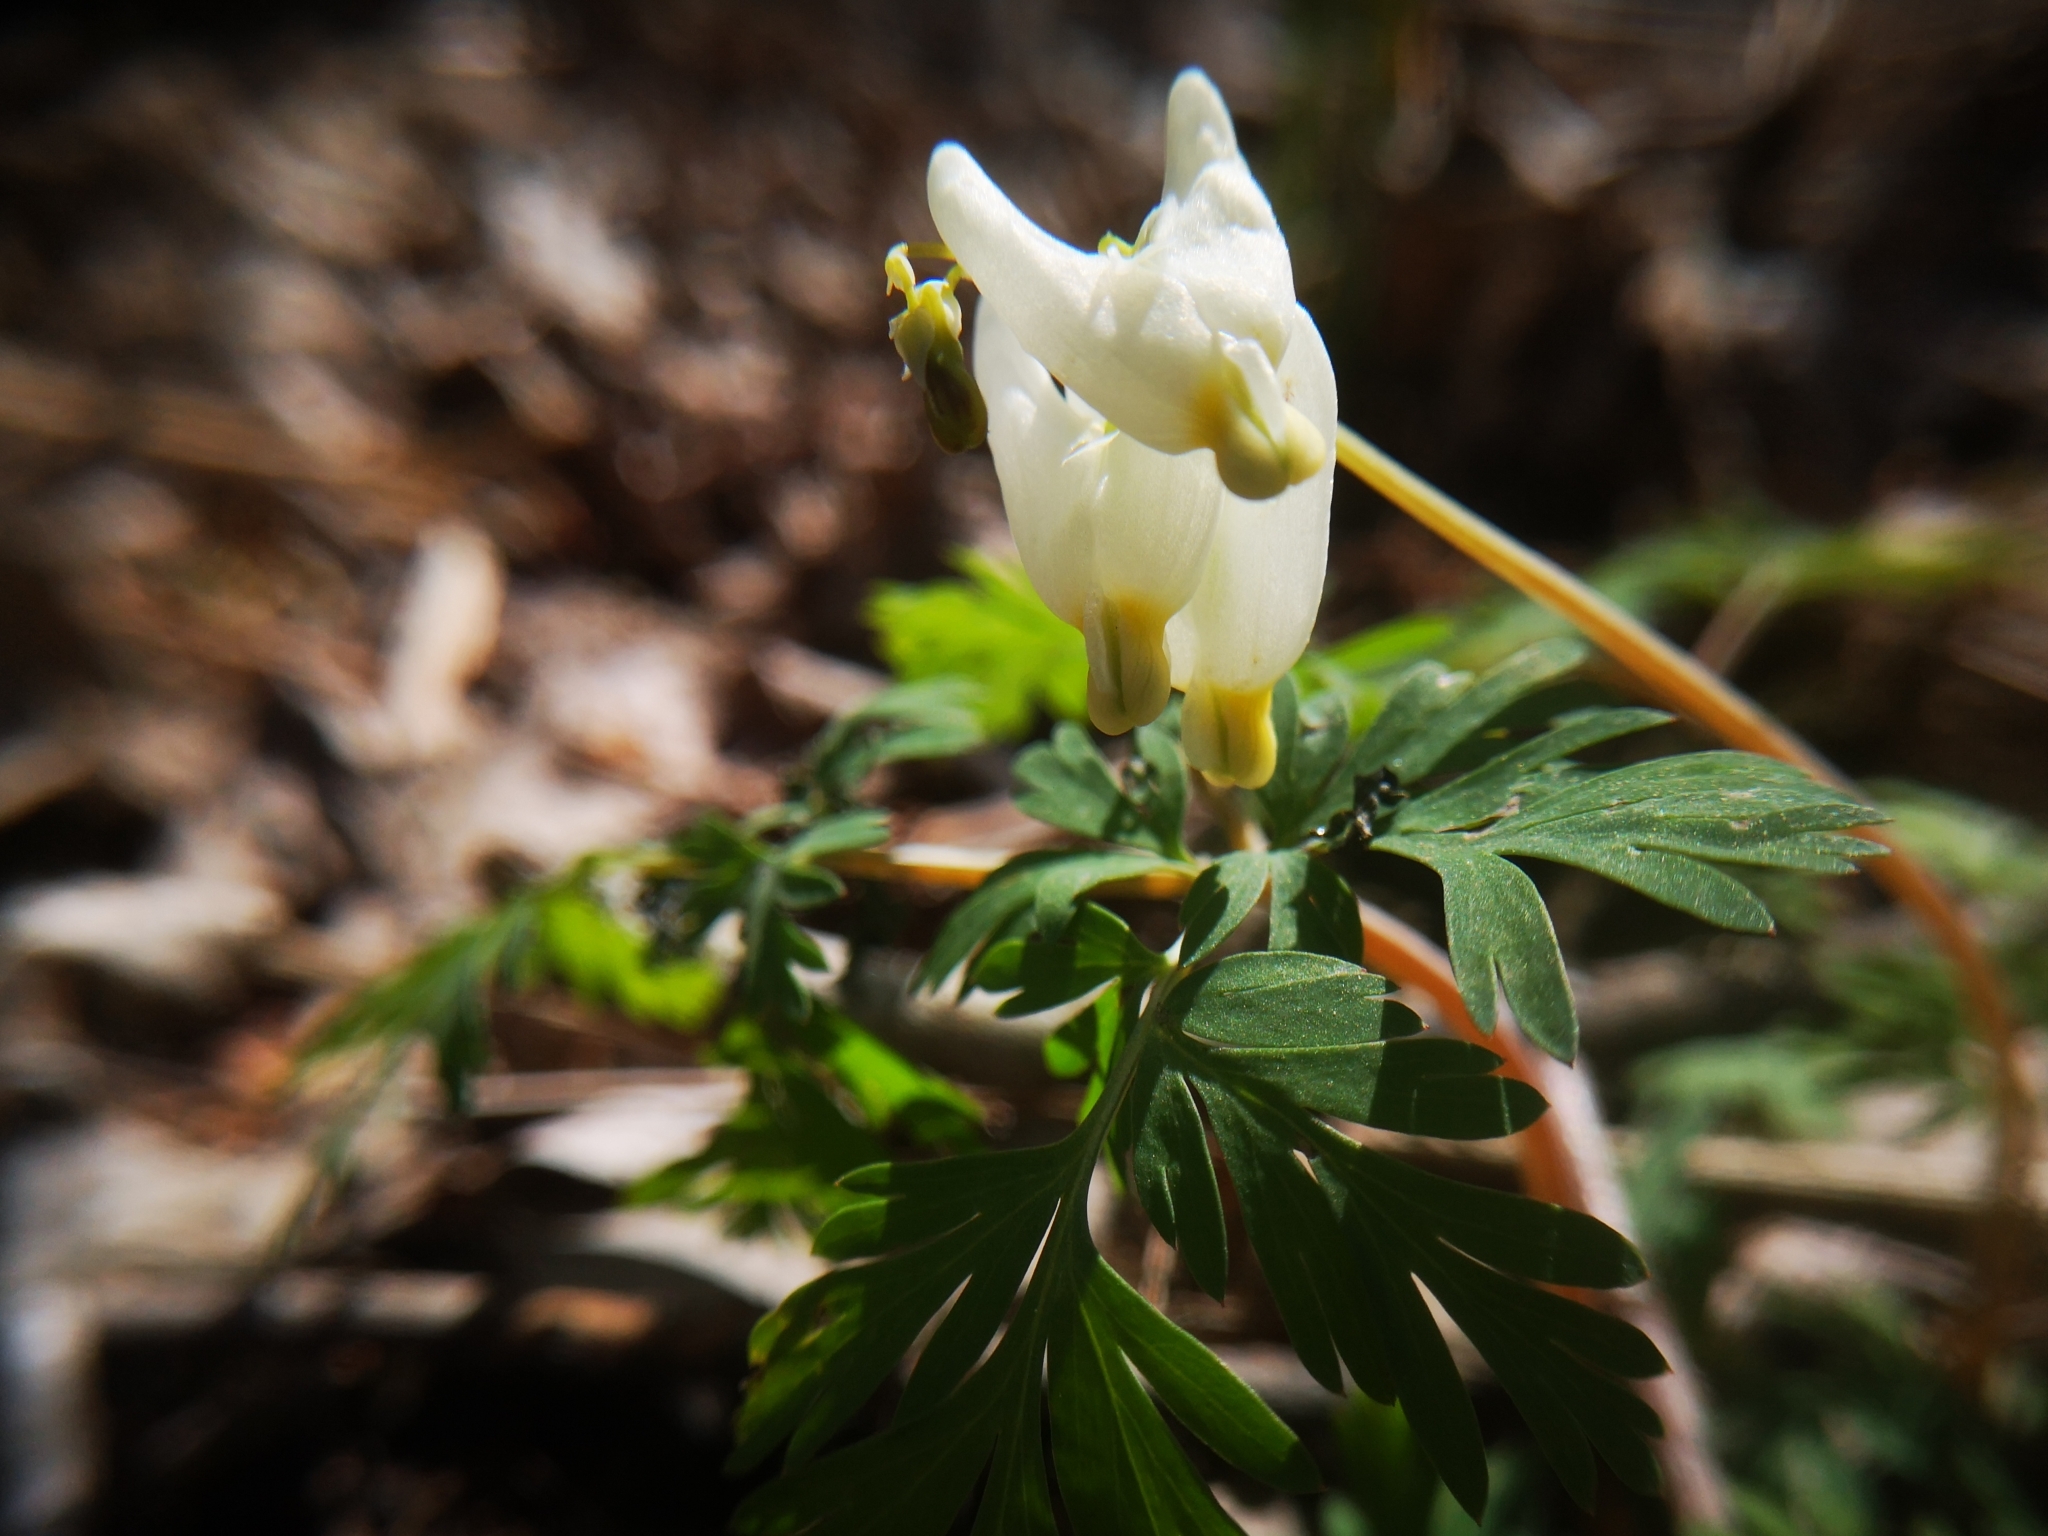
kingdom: Plantae
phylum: Tracheophyta
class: Magnoliopsida
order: Ranunculales
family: Papaveraceae
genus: Dicentra
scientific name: Dicentra cucullaria
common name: Dutchman's breeches
